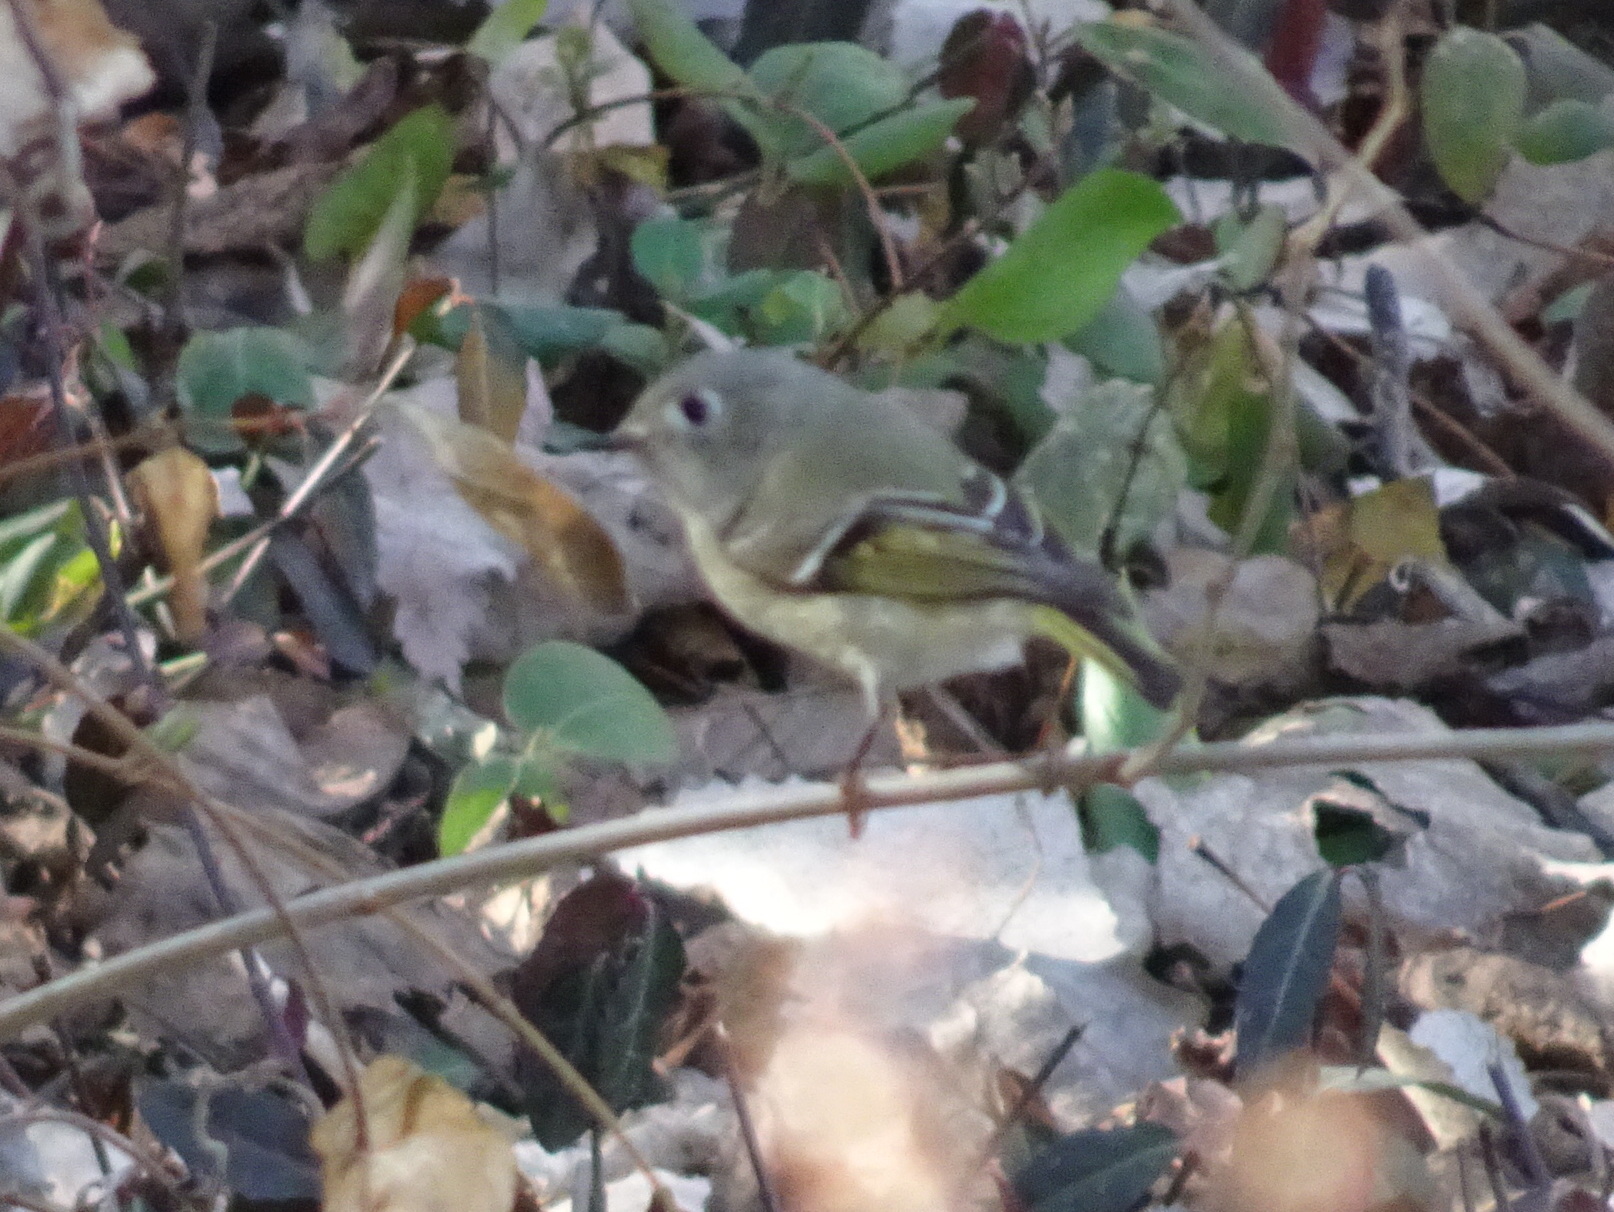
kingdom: Animalia
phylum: Chordata
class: Aves
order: Passeriformes
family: Regulidae
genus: Regulus
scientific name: Regulus calendula
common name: Ruby-crowned kinglet
